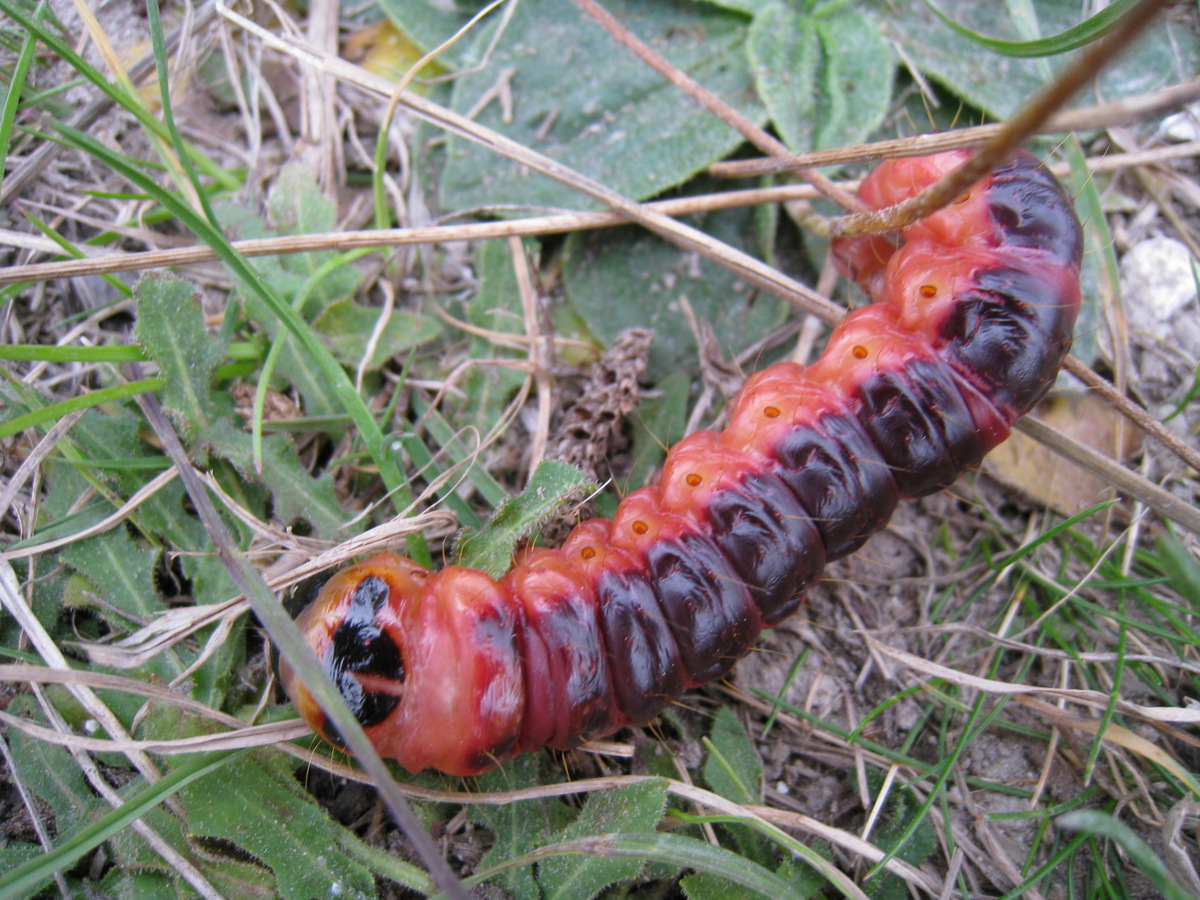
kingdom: Animalia
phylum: Arthropoda
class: Insecta
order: Lepidoptera
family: Cossidae
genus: Cossus
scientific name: Cossus cossus
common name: Goat moth
